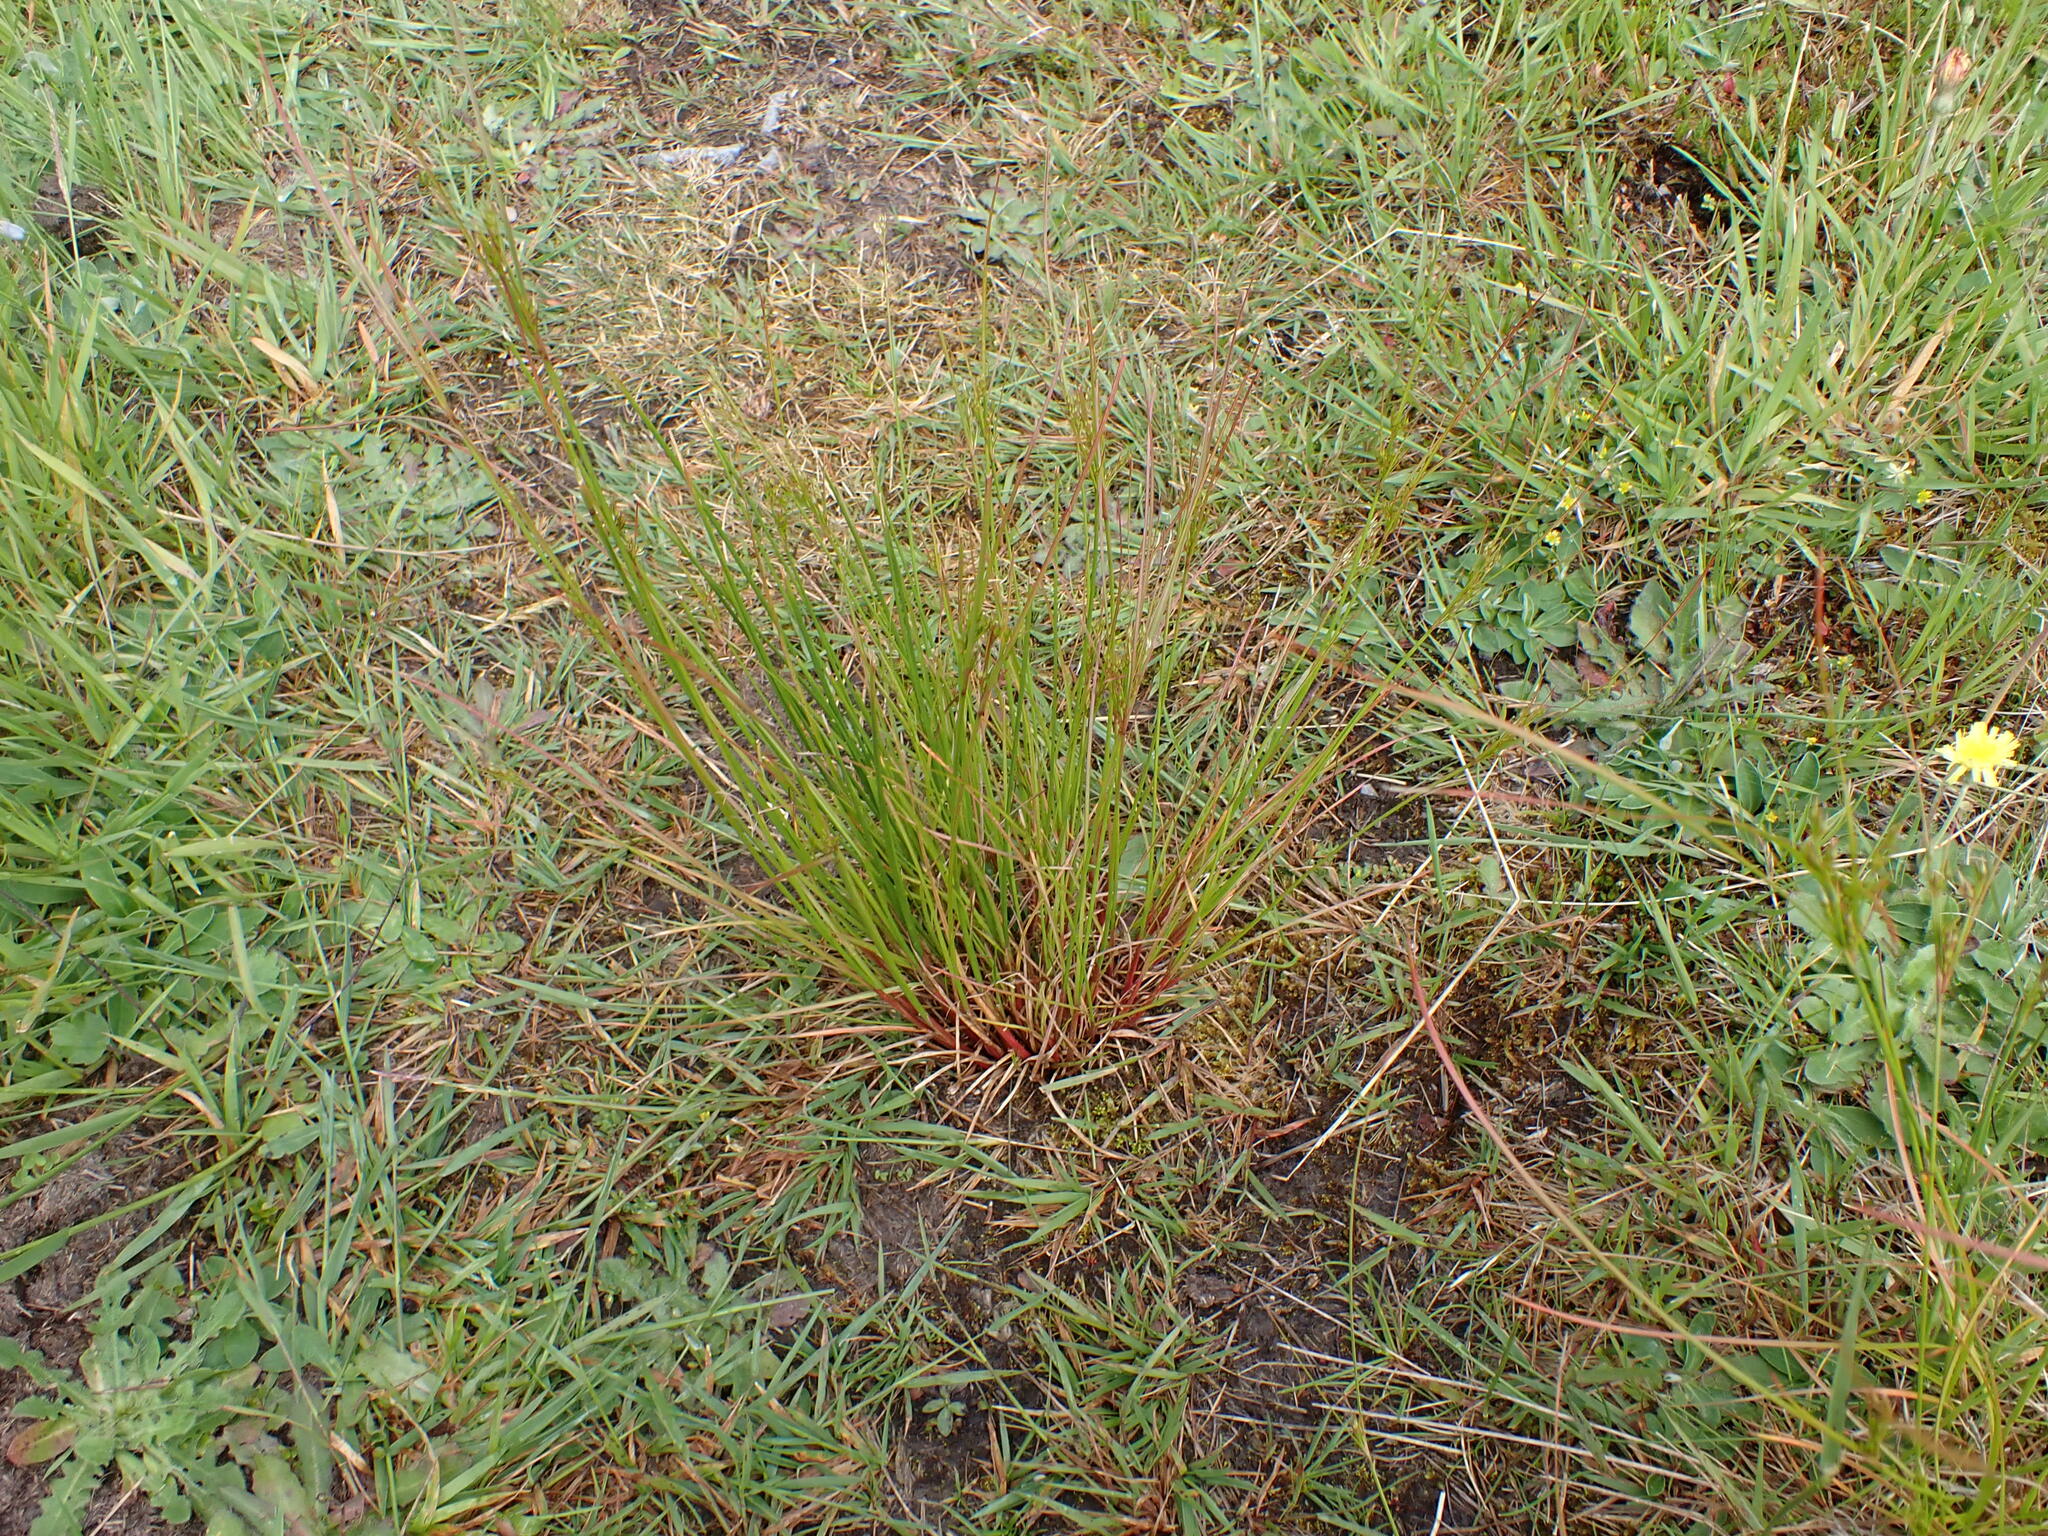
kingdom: Plantae
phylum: Tracheophyta
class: Liliopsida
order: Poales
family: Juncaceae
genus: Juncus
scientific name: Juncus tenuis
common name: Slender rush
